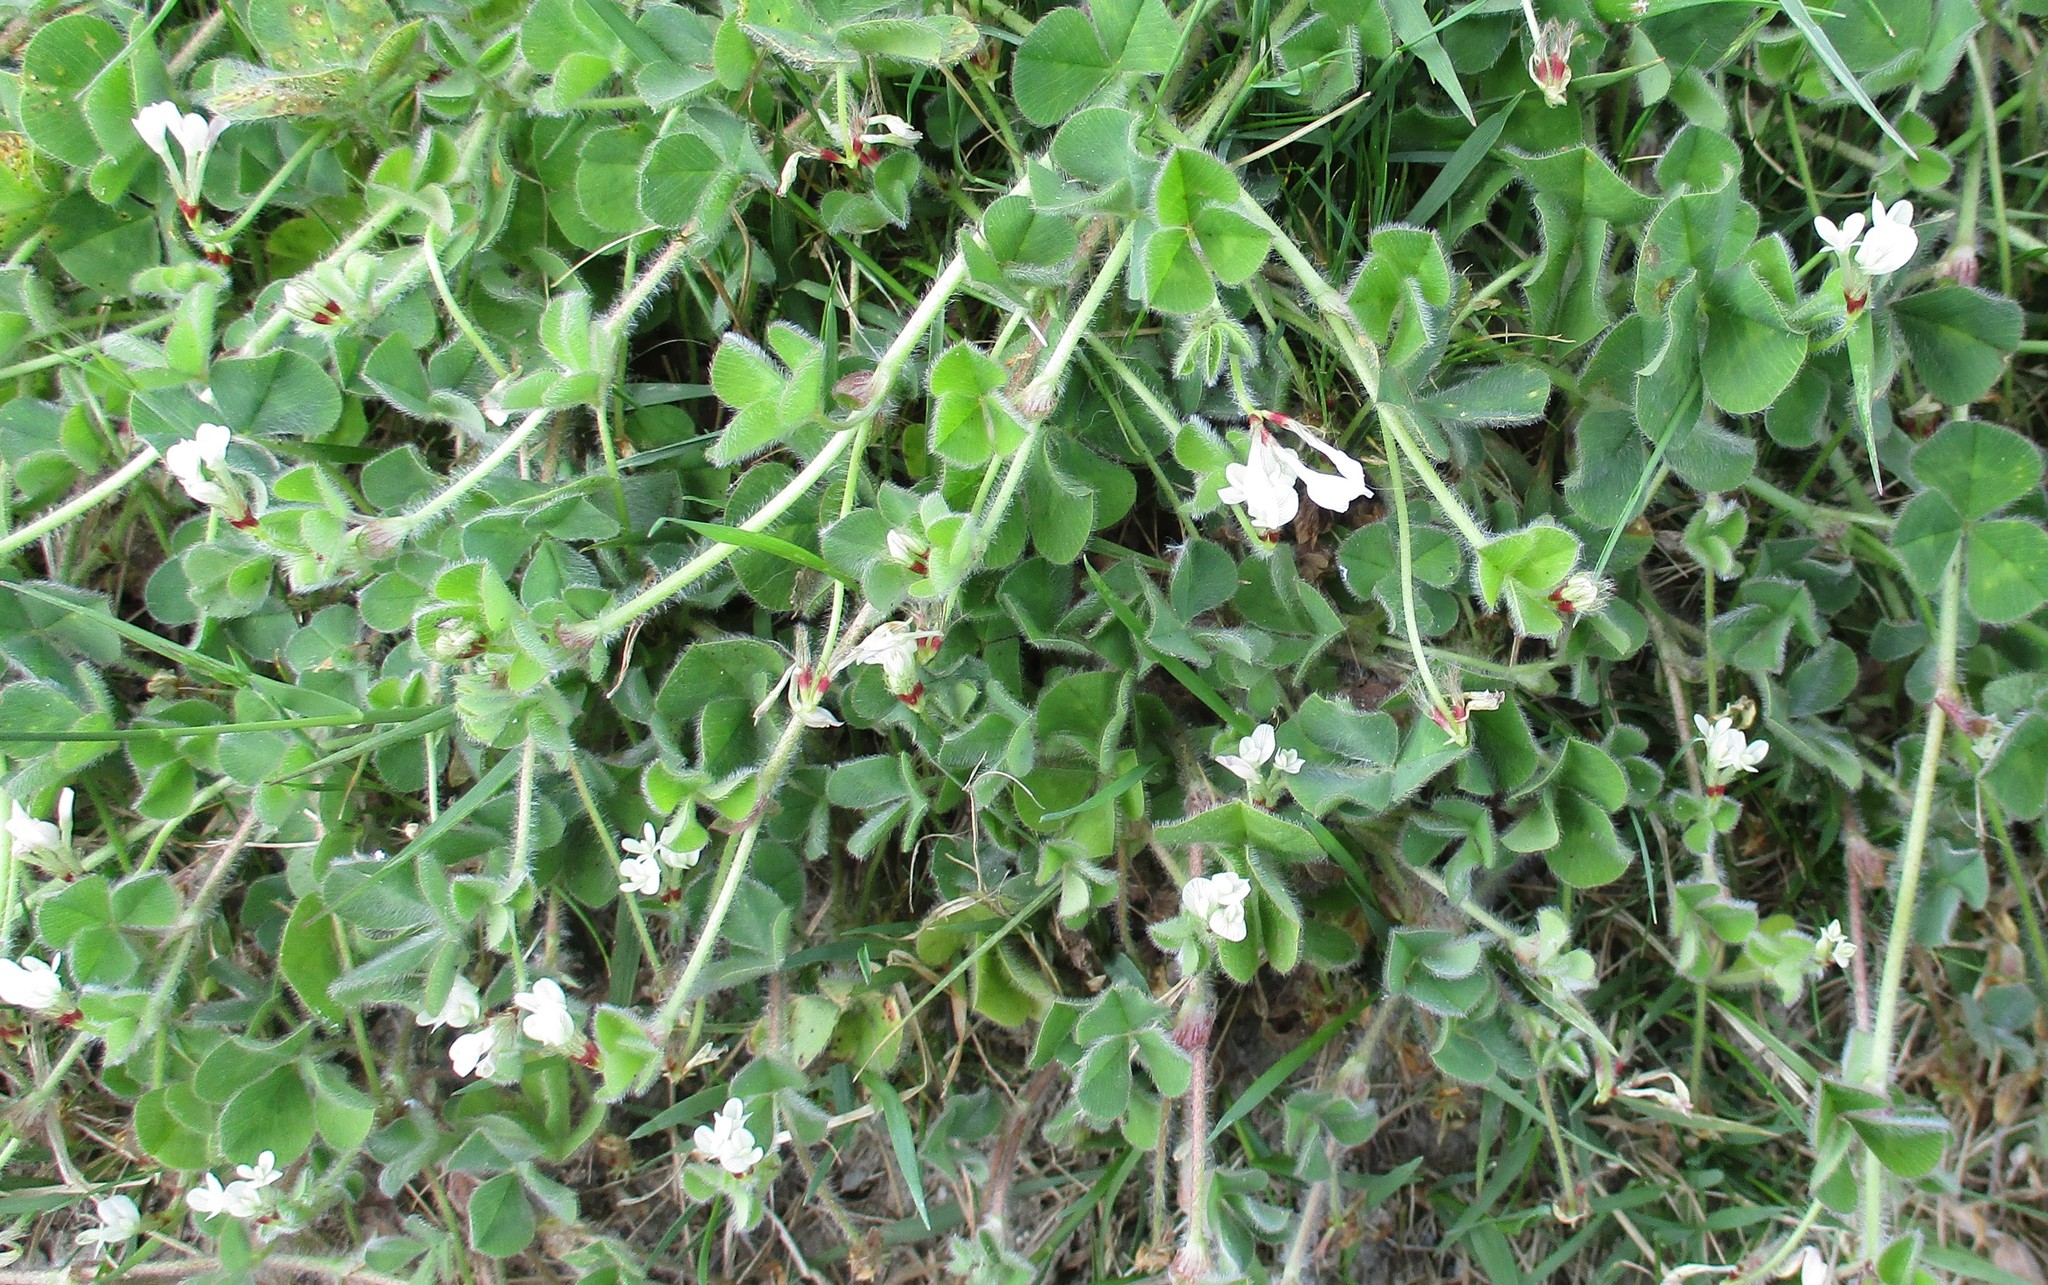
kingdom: Plantae
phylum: Tracheophyta
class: Magnoliopsida
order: Fabales
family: Fabaceae
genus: Trifolium
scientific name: Trifolium subterraneum
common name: Subterranean clover
